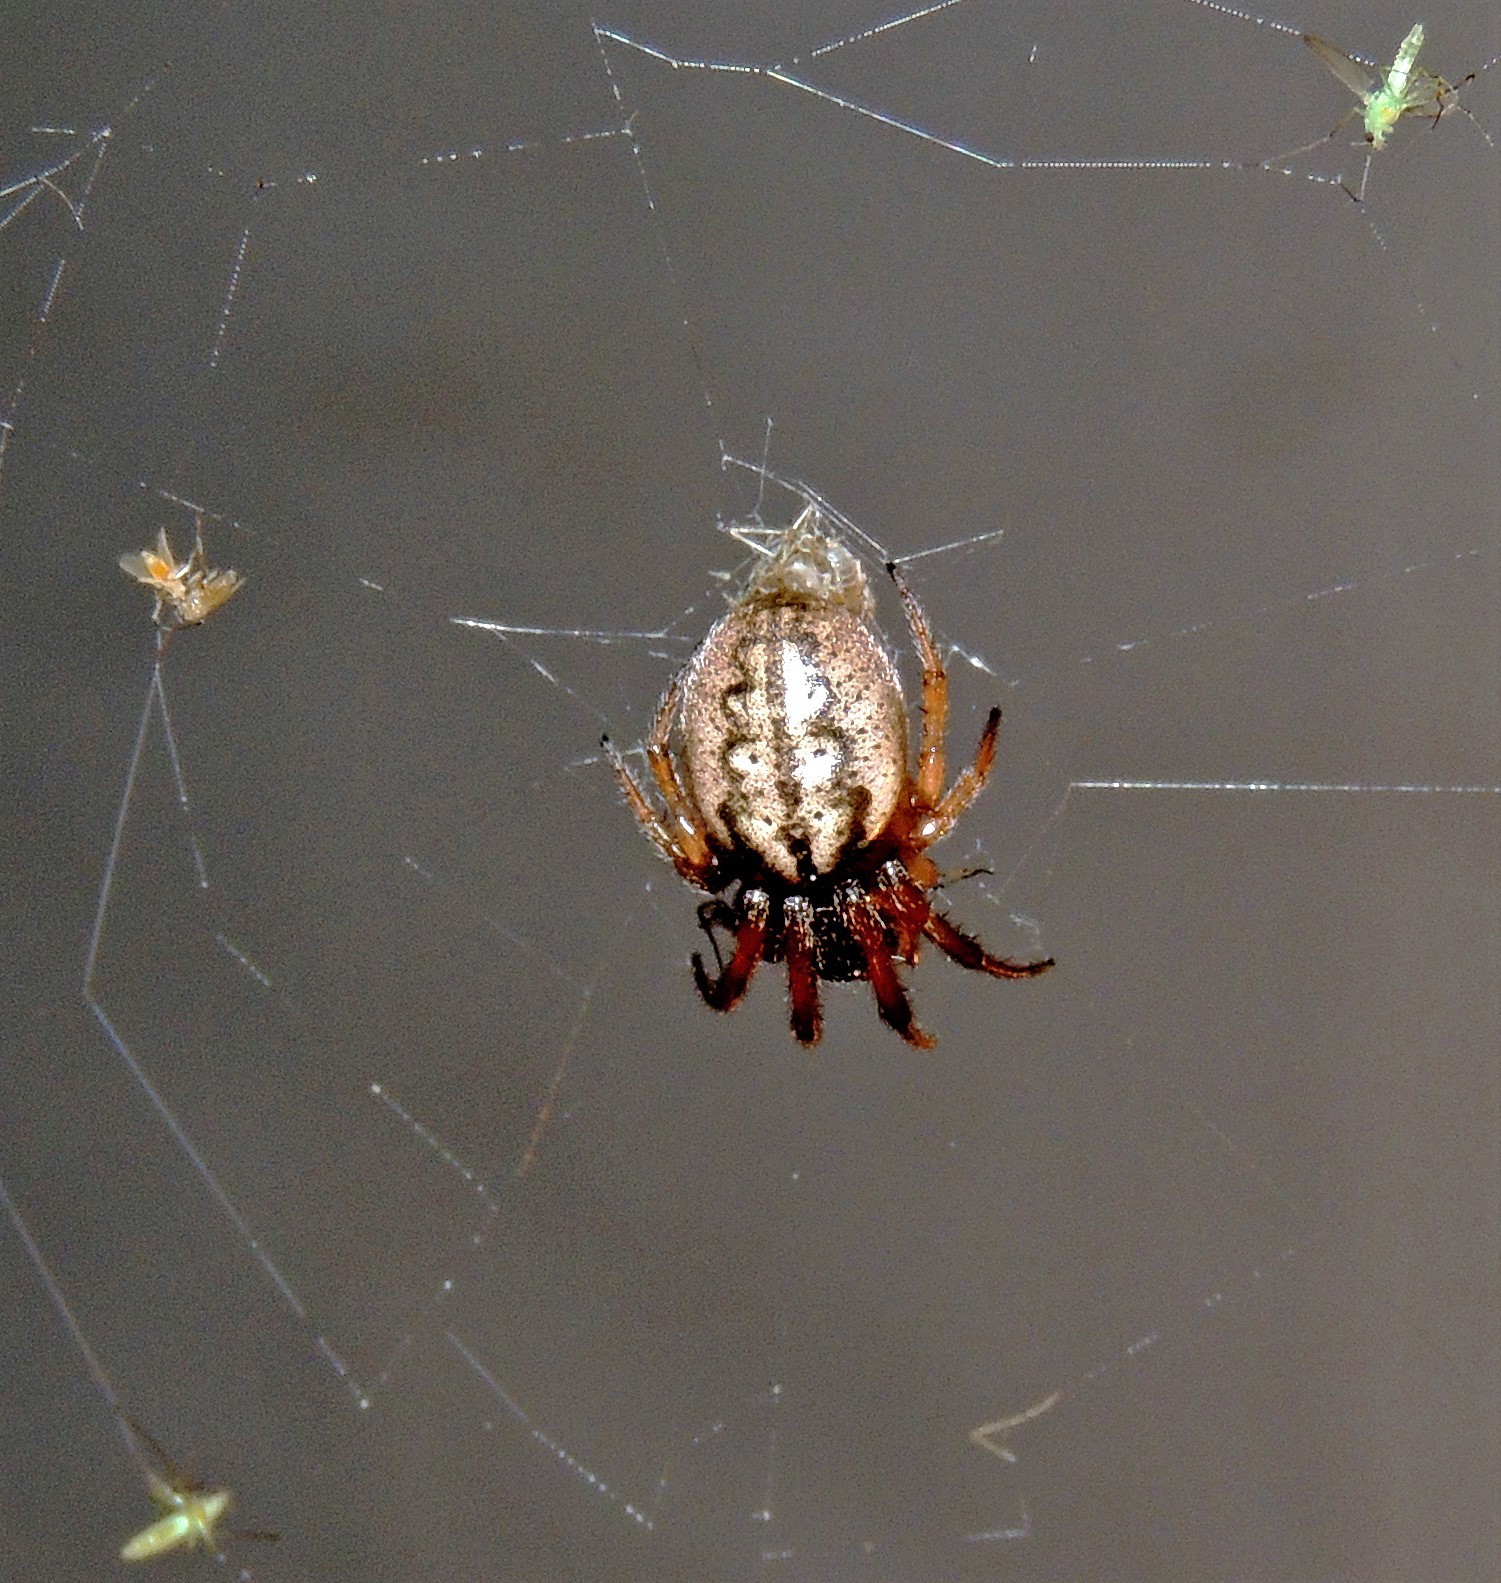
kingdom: Animalia
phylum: Arthropoda
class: Arachnida
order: Araneae
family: Araneidae
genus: Metazygia
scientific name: Metazygia
